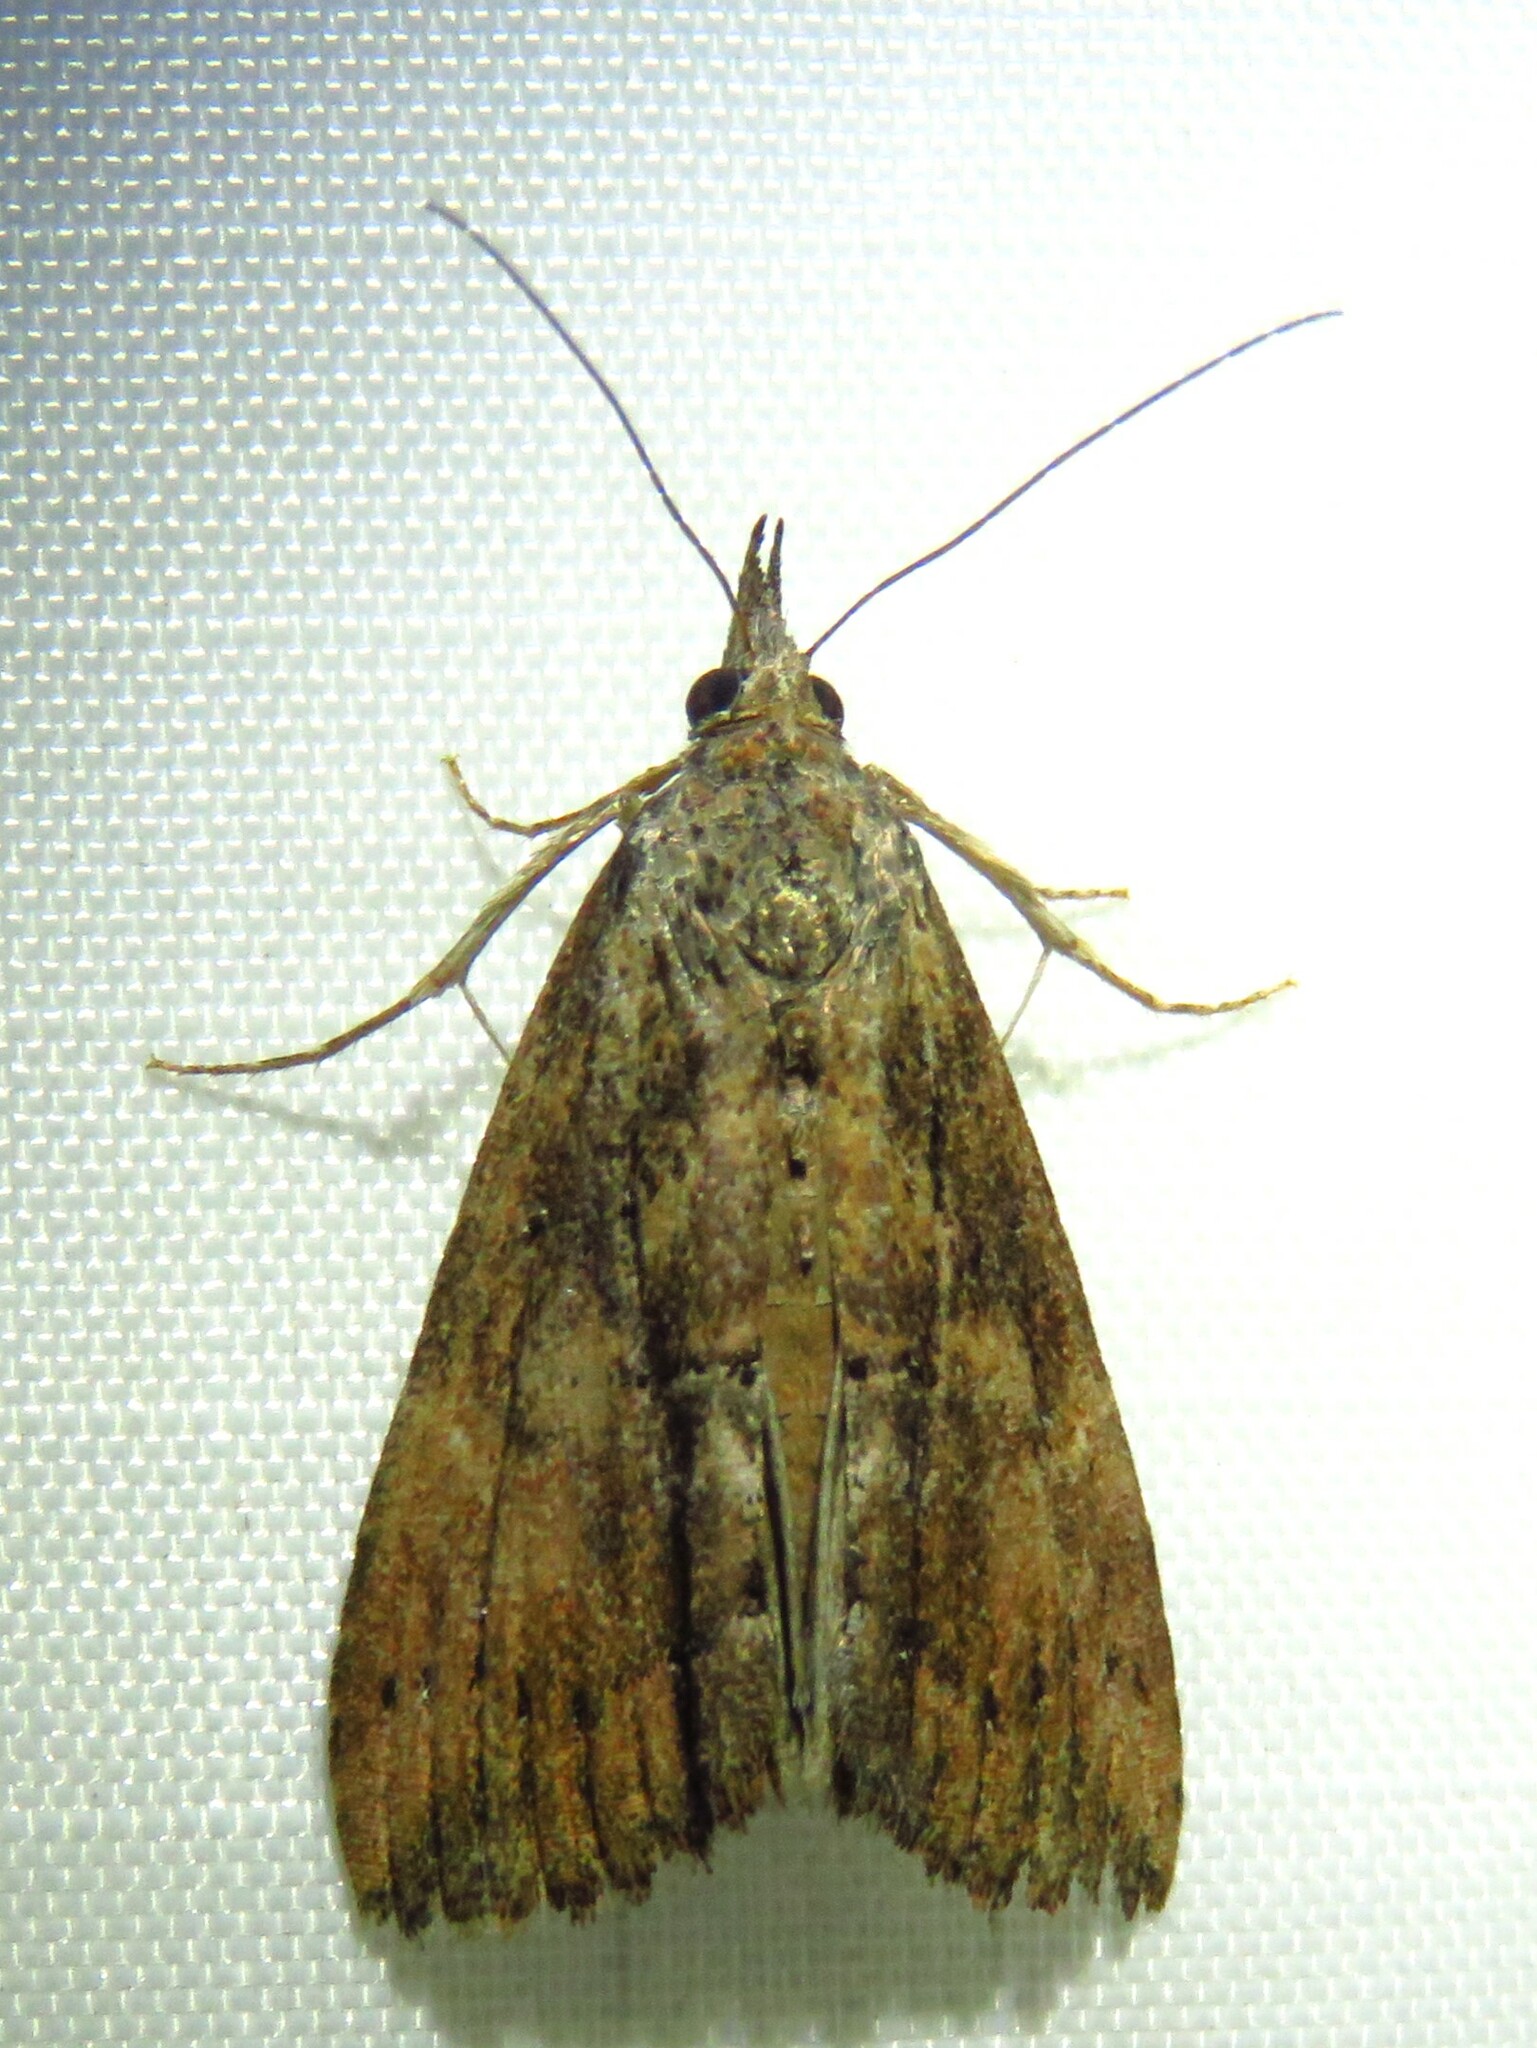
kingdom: Animalia
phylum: Arthropoda
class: Insecta
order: Lepidoptera
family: Erebidae
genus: Hypena
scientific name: Hypena scabra
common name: Green cloverworm
